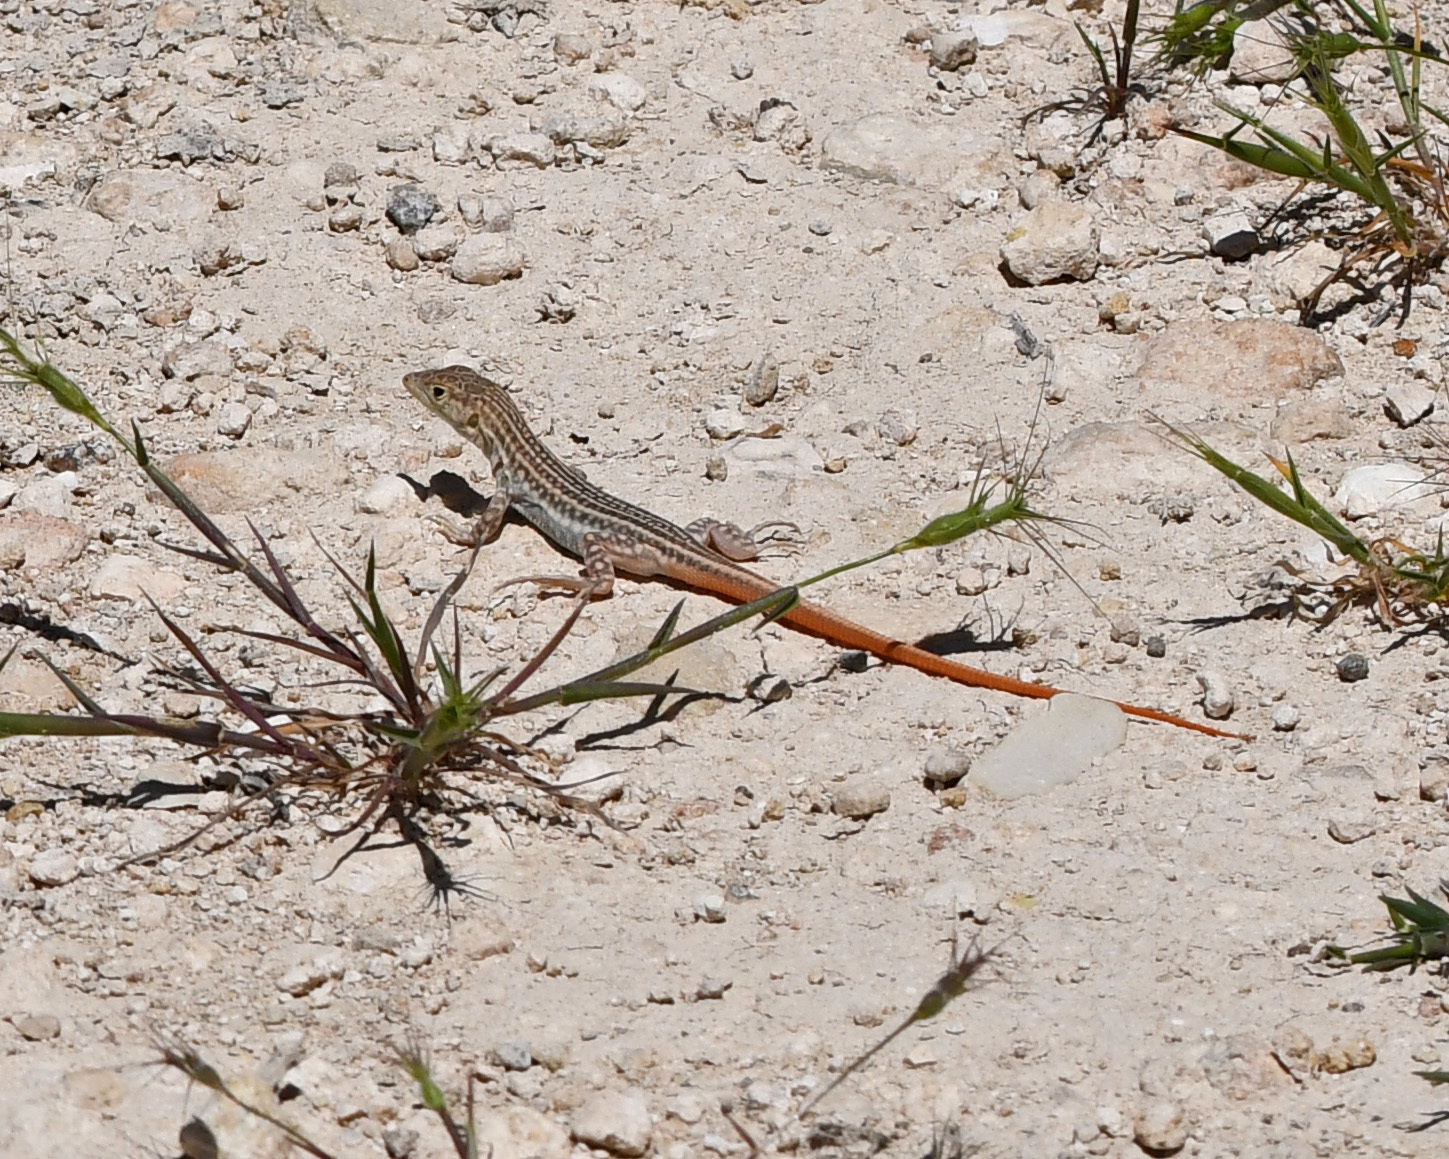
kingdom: Animalia
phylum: Chordata
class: Squamata
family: Lacertidae
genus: Acanthodactylus
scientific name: Acanthodactylus schreiberi
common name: Schreiber's fringe-fingered lizard
